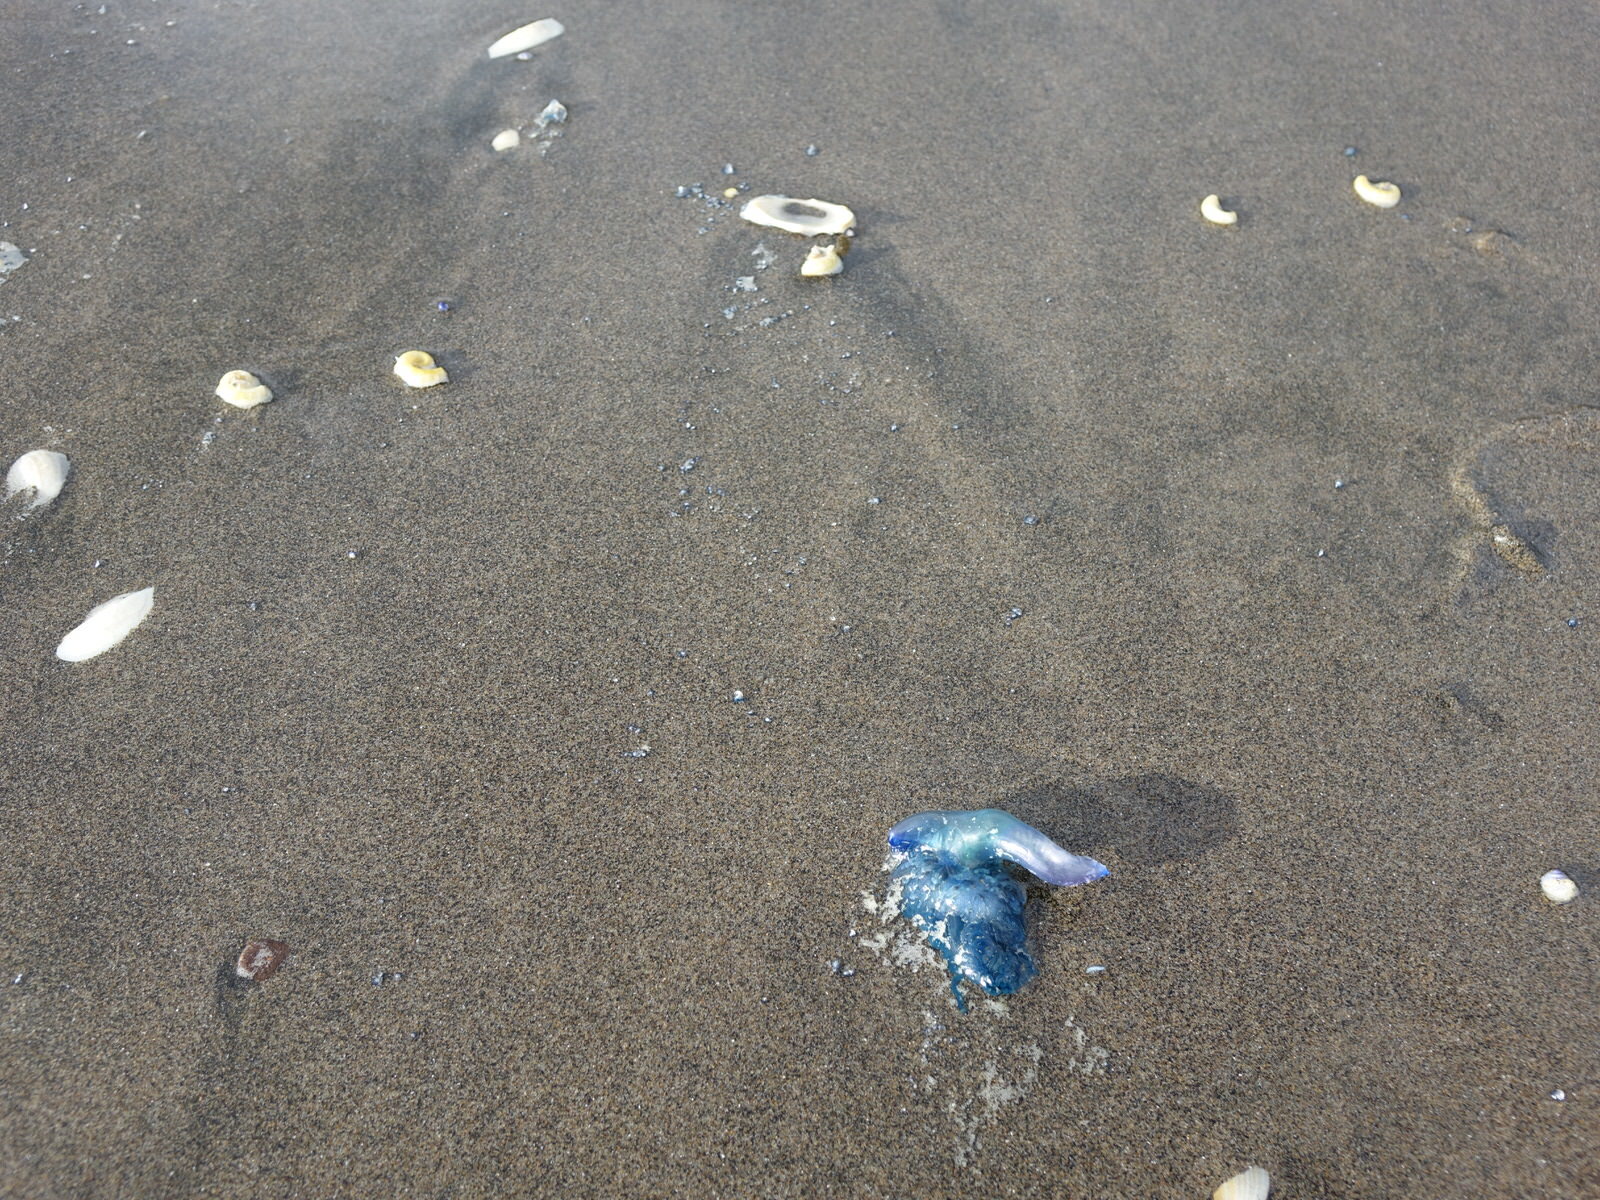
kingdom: Animalia
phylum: Cnidaria
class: Hydrozoa
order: Siphonophorae
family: Physaliidae
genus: Physalia
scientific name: Physalia physalis
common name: Portuguese man-of-war
